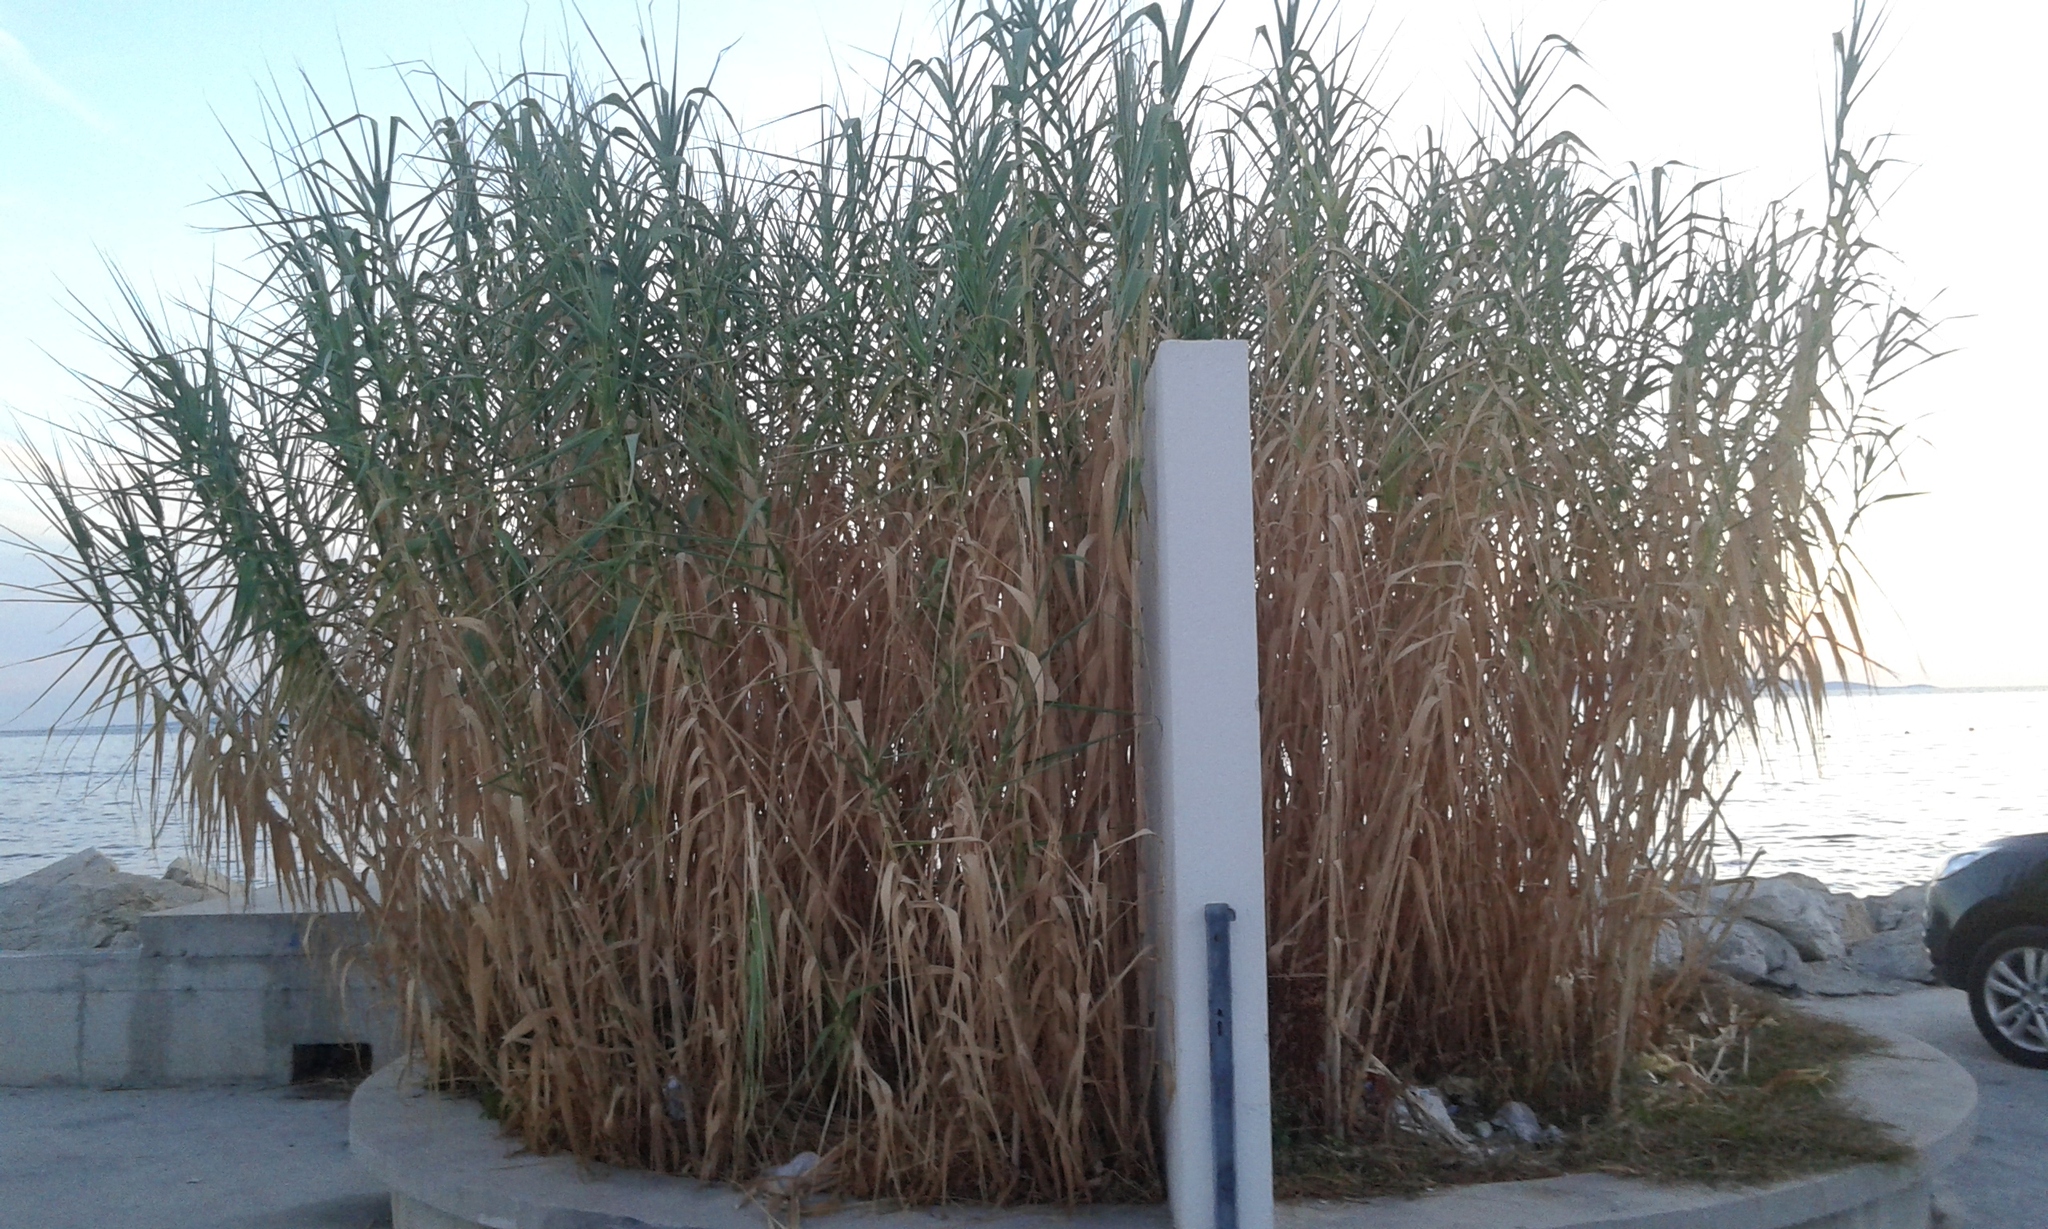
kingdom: Plantae
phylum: Tracheophyta
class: Liliopsida
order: Poales
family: Poaceae
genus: Arundo
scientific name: Arundo donax
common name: Giant reed
